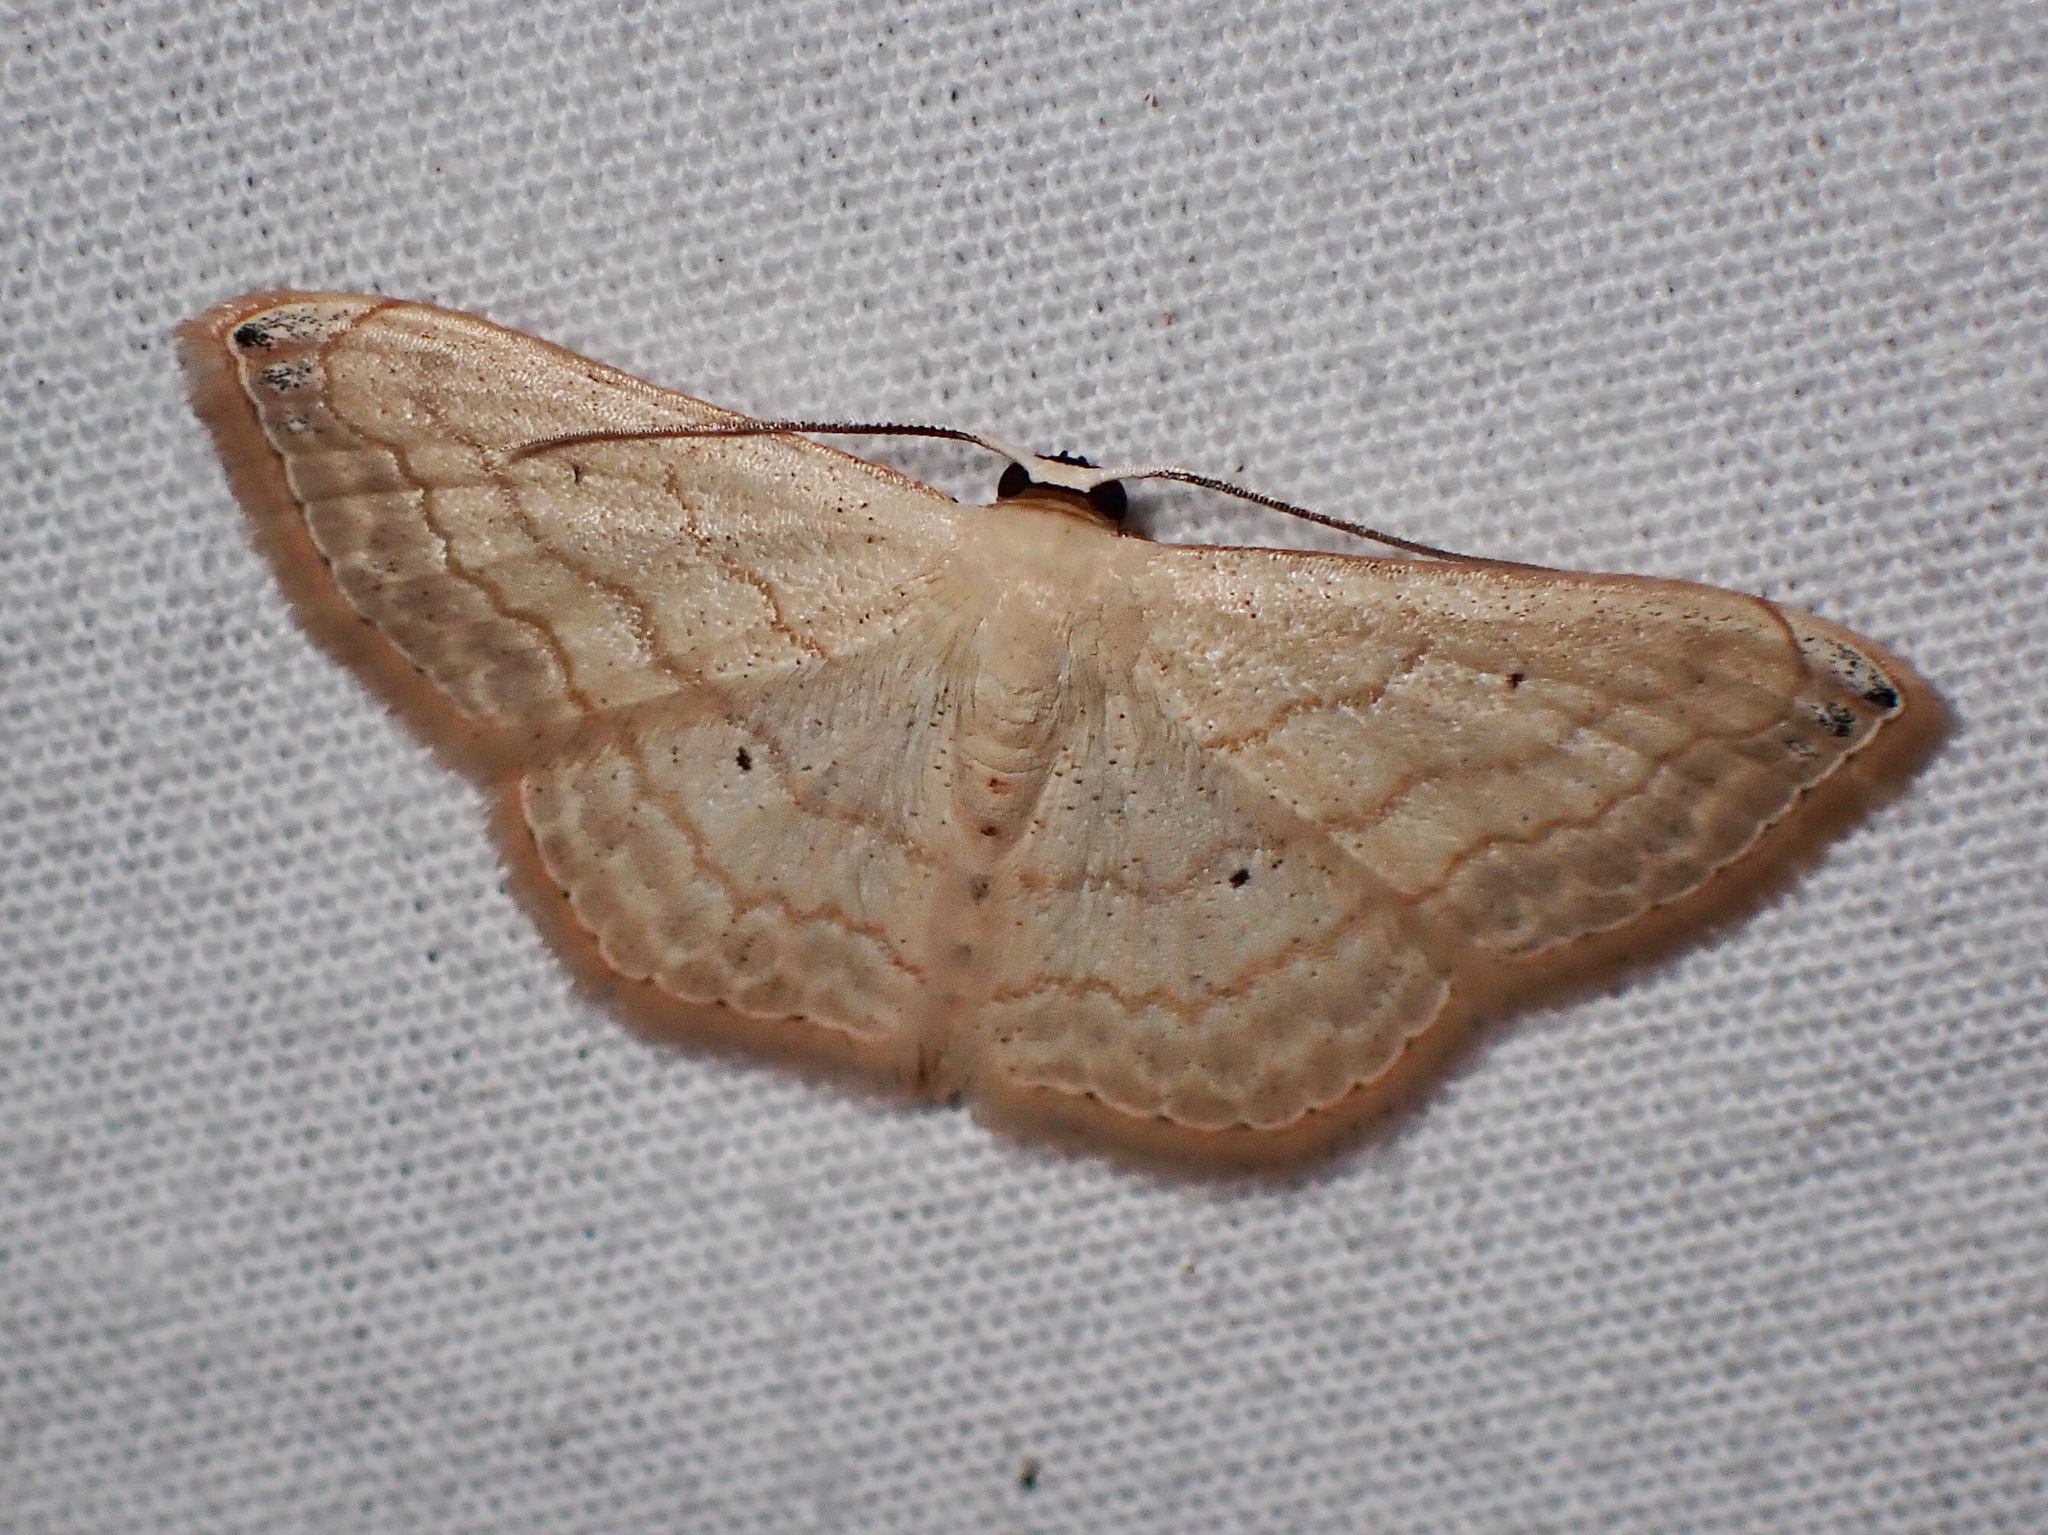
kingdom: Animalia
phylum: Arthropoda
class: Insecta
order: Lepidoptera
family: Geometridae
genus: Scopula
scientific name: Scopula umbilicata
